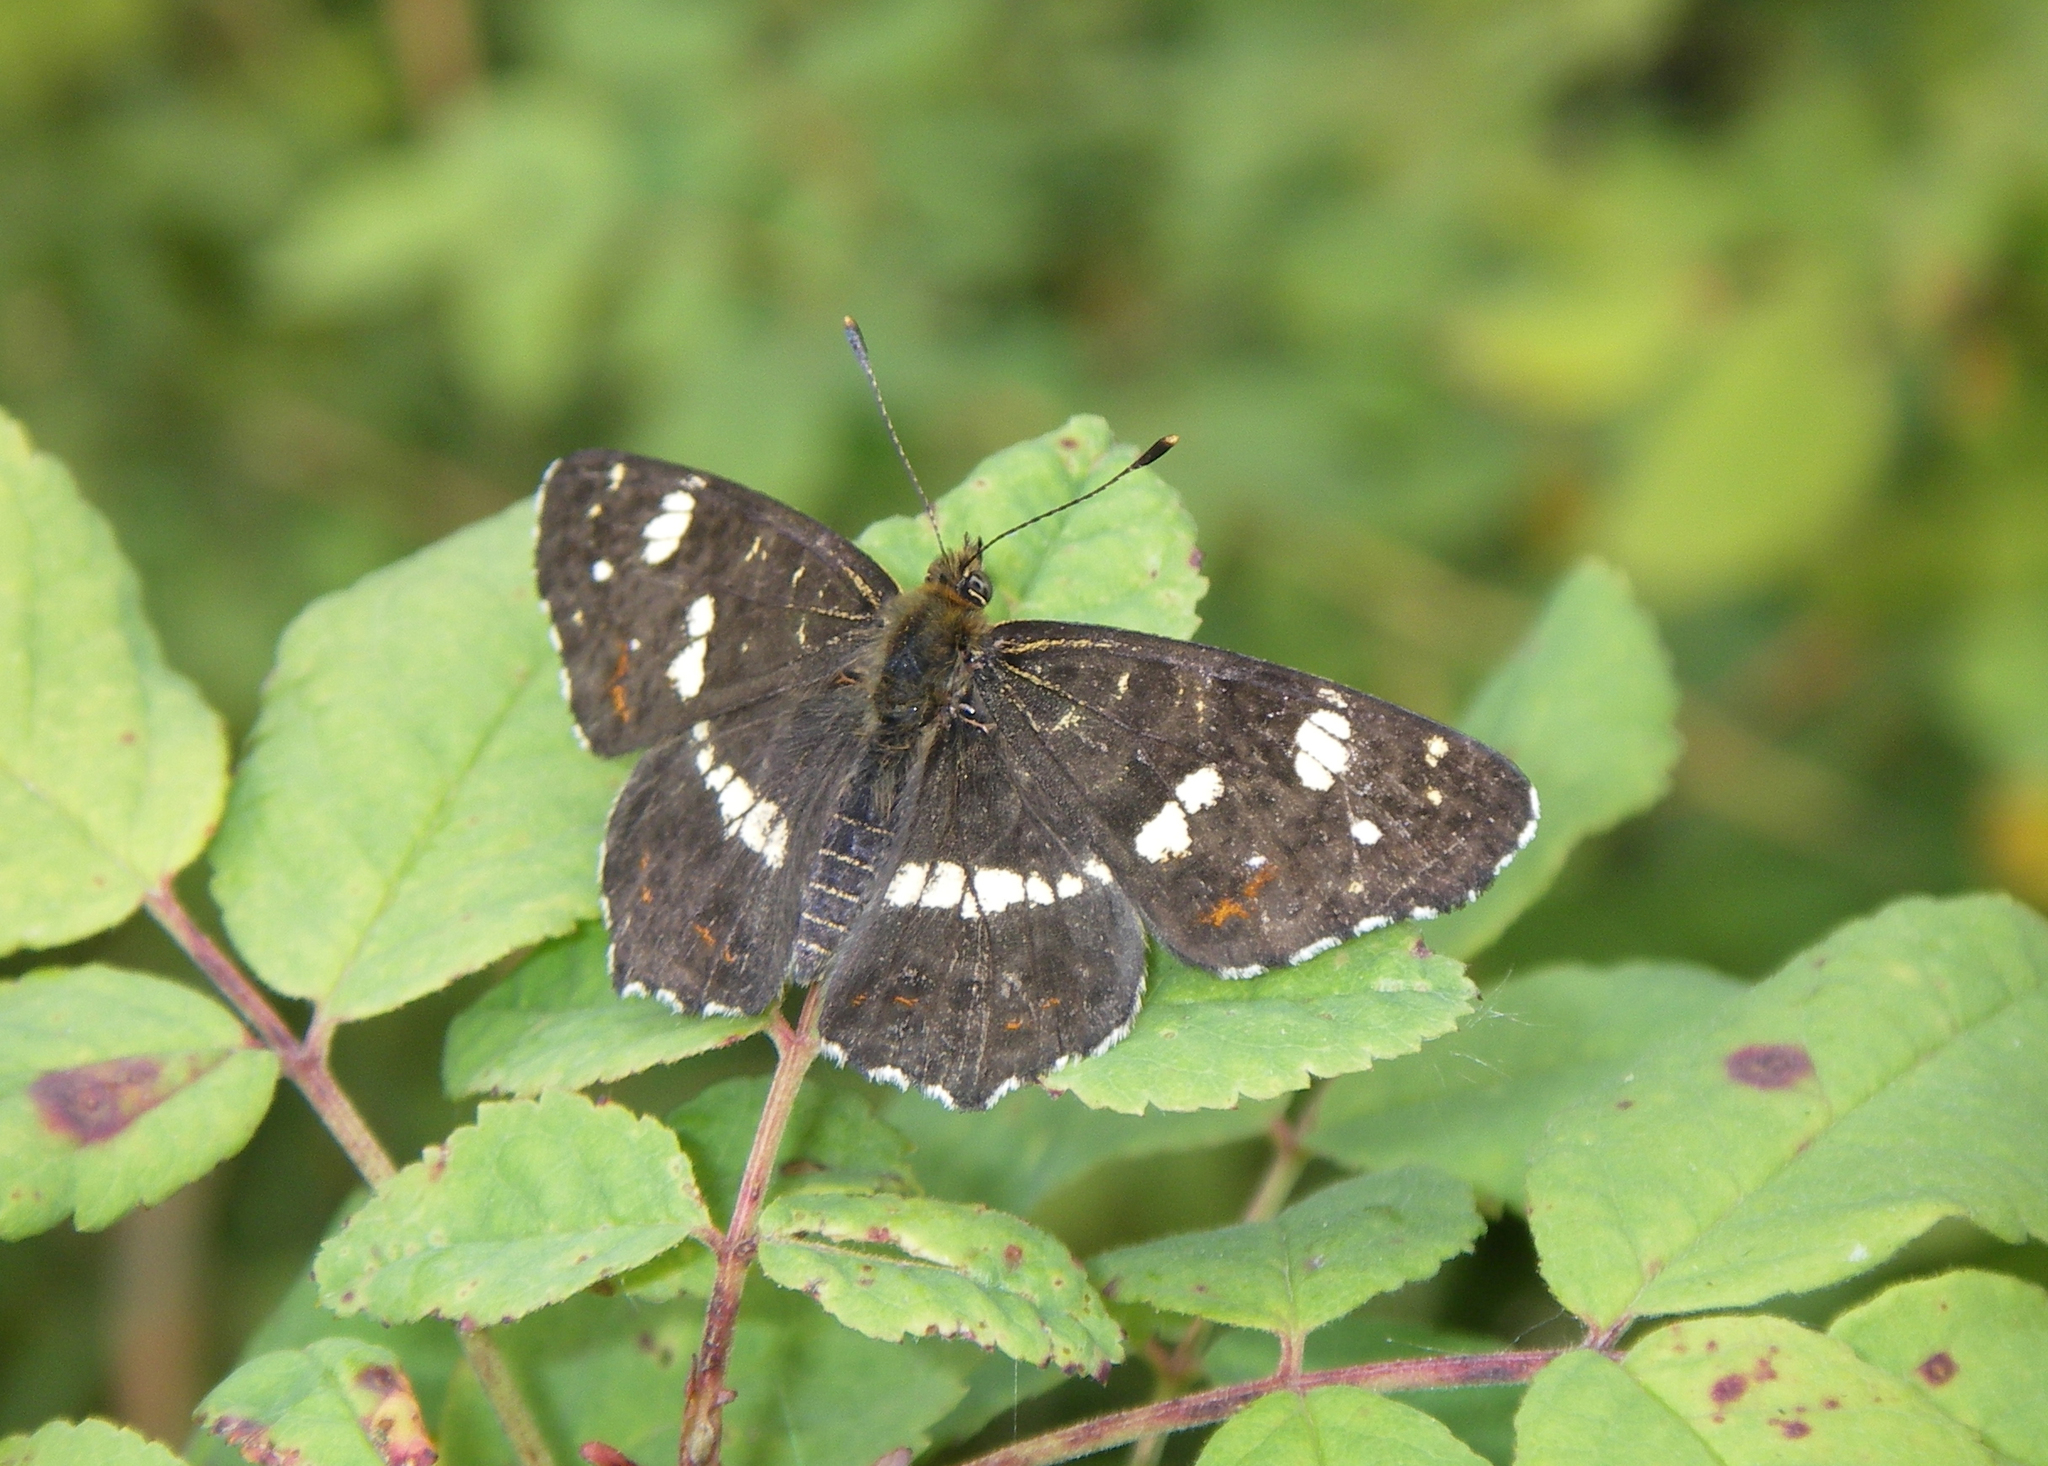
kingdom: Animalia
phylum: Arthropoda
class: Insecta
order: Lepidoptera
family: Nymphalidae
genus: Araschnia
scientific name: Araschnia levana
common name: Map butterfly
